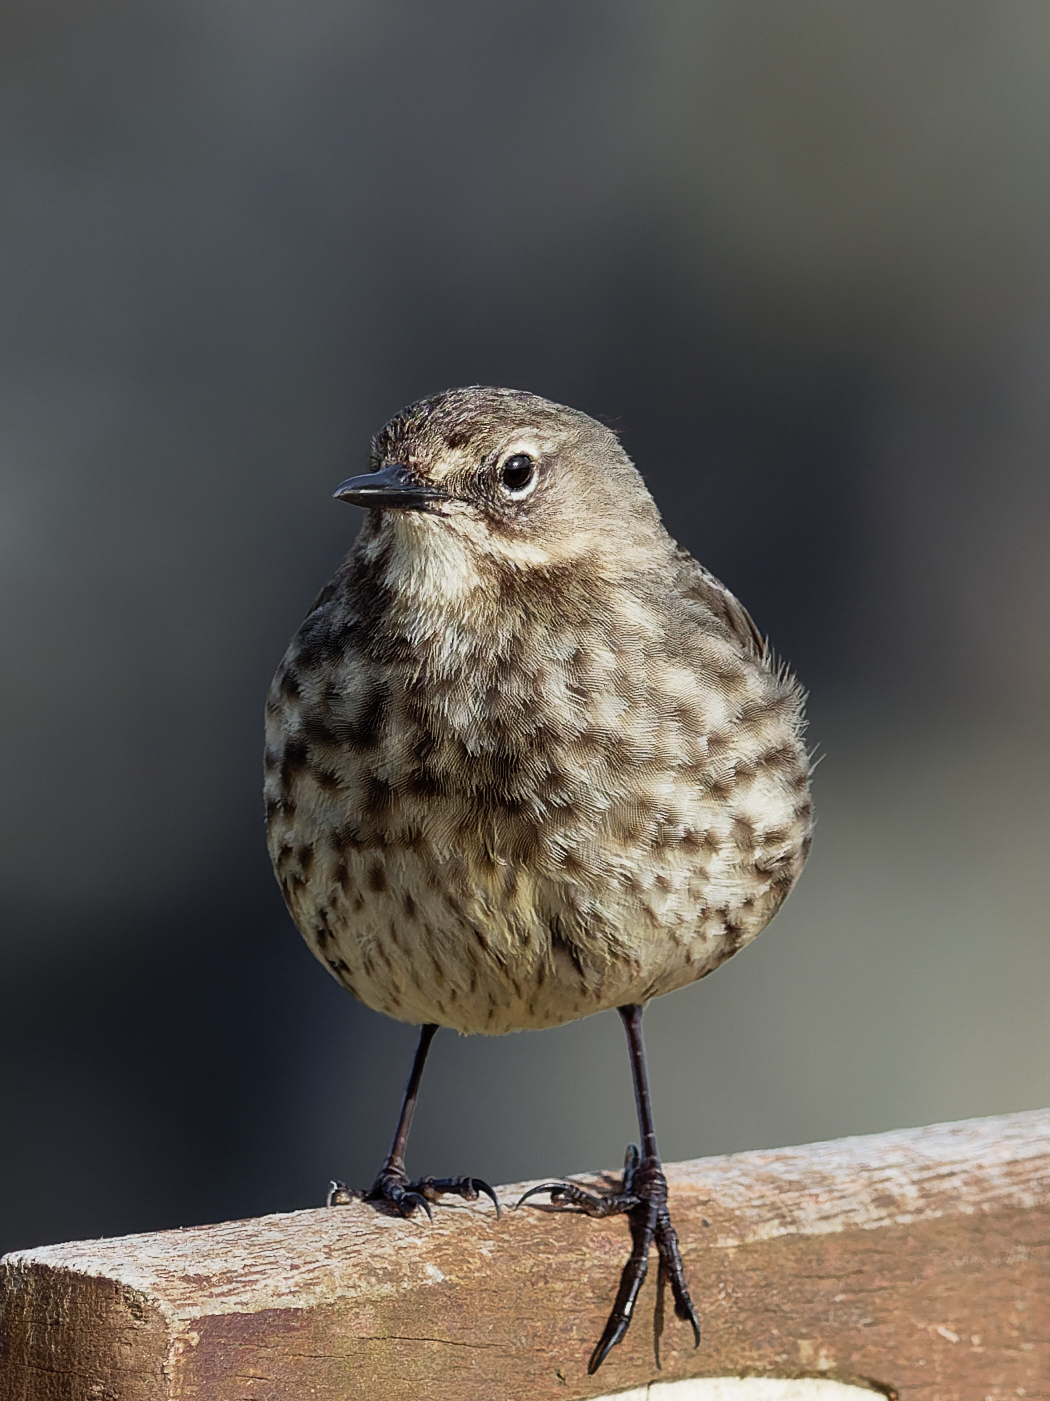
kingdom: Animalia
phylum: Chordata
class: Aves
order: Passeriformes
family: Motacillidae
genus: Anthus
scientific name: Anthus petrosus
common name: Eurasian rock pipit
